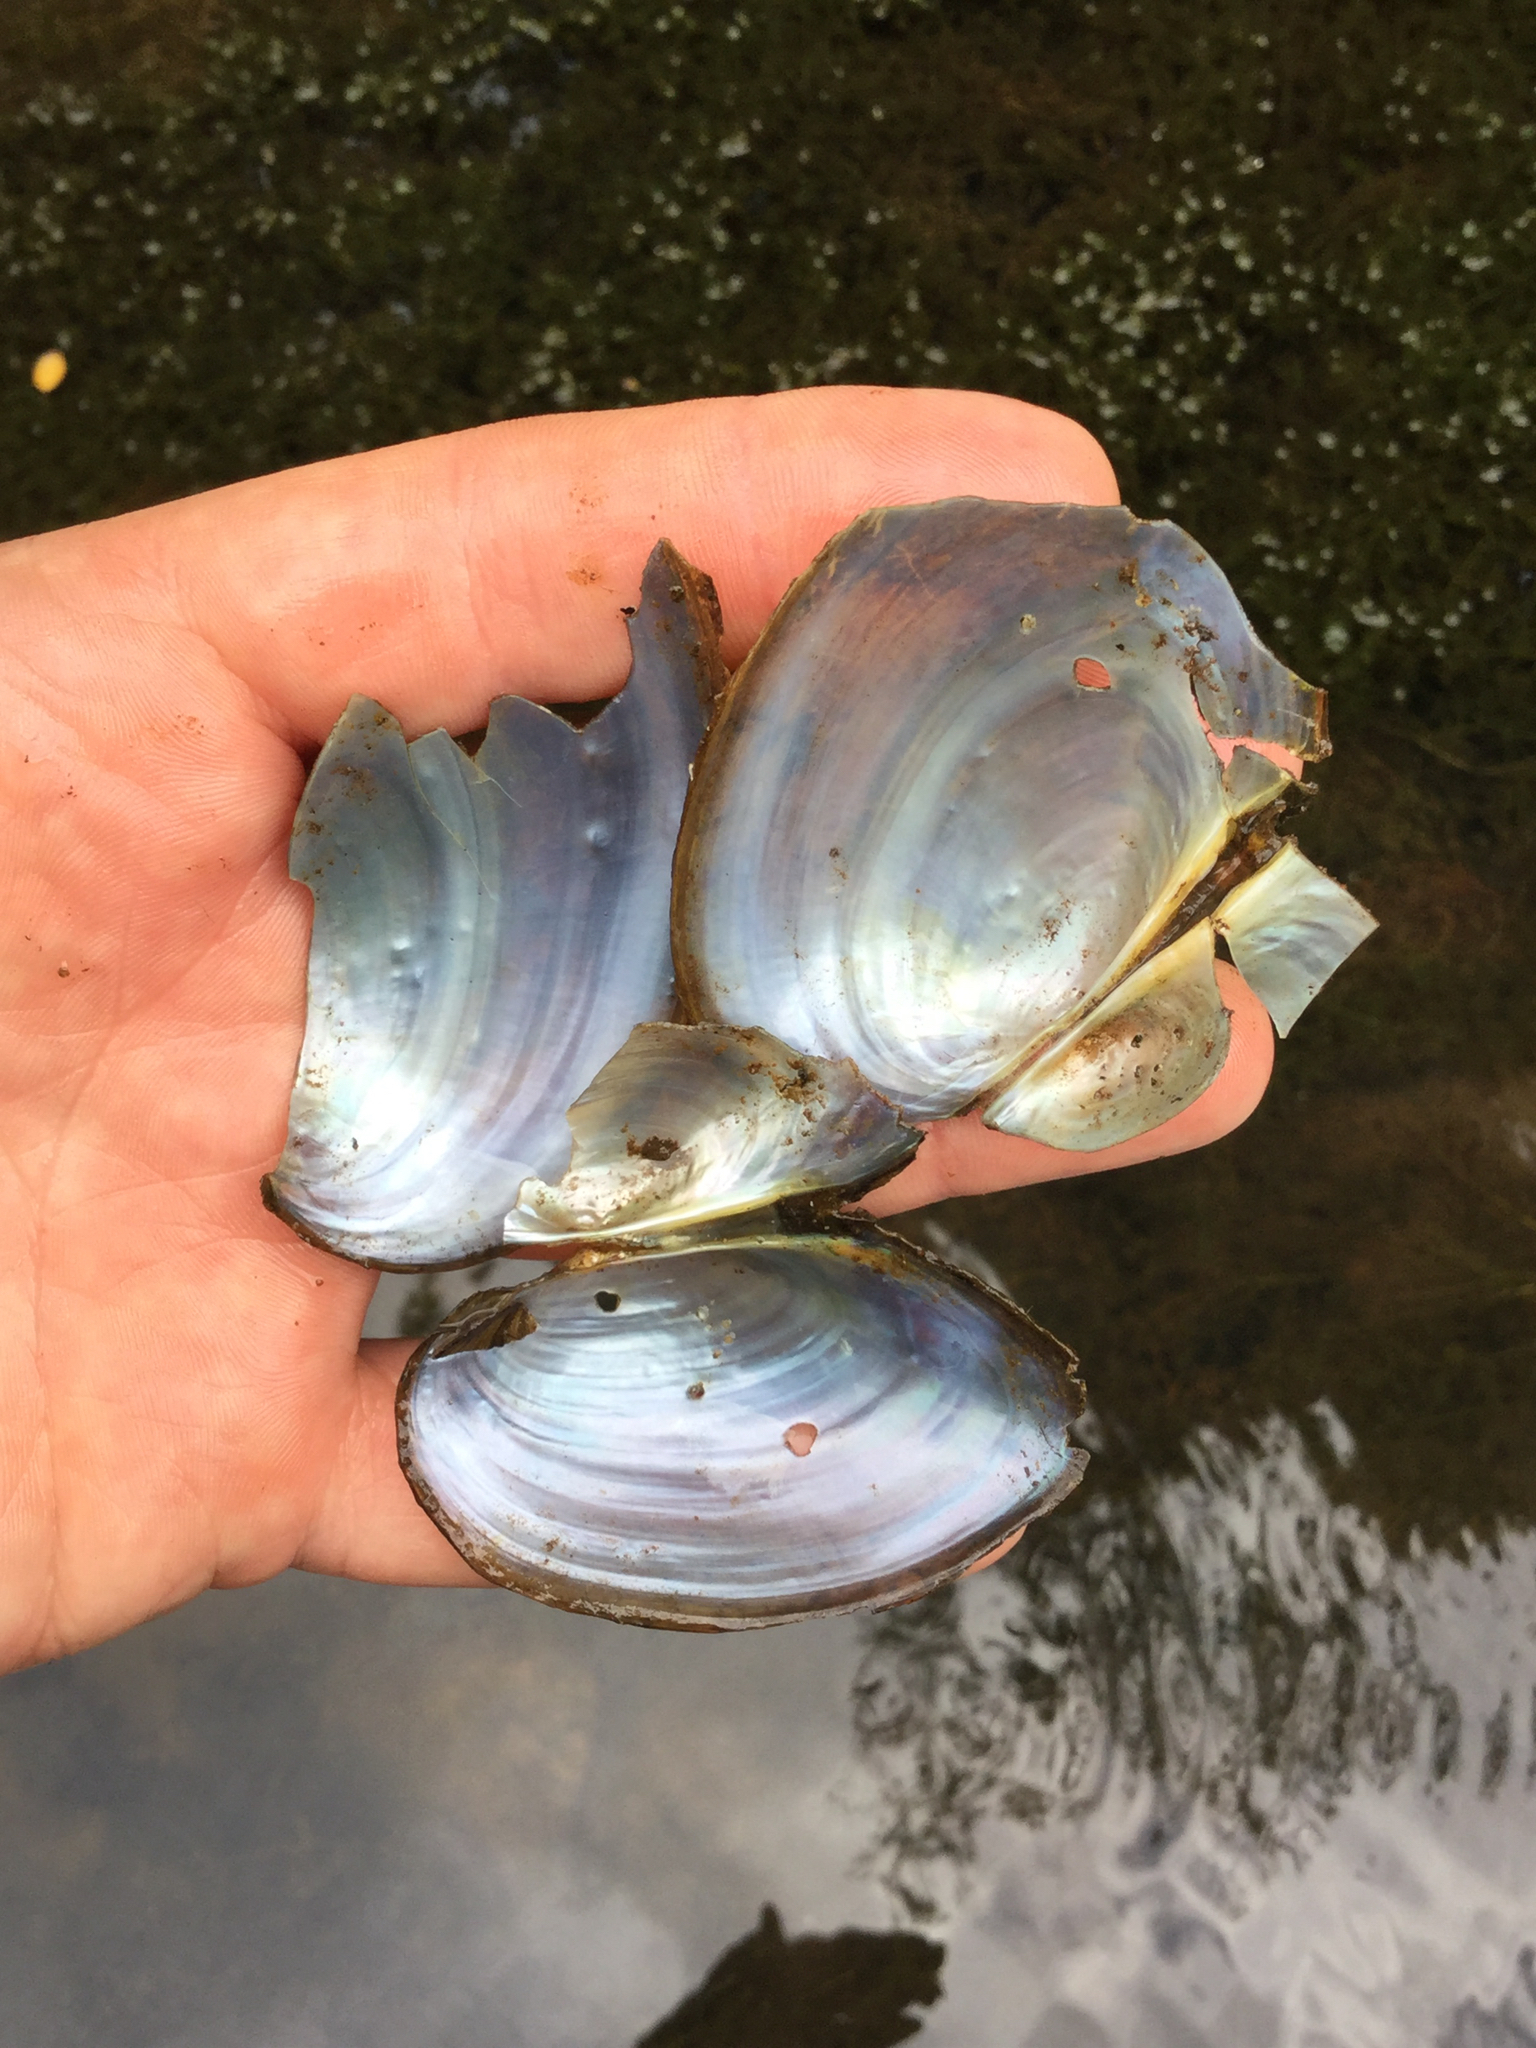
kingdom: Animalia
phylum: Mollusca
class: Bivalvia
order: Unionida
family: Unionidae
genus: Pyganodon
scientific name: Pyganodon grandis
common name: Giant floater
